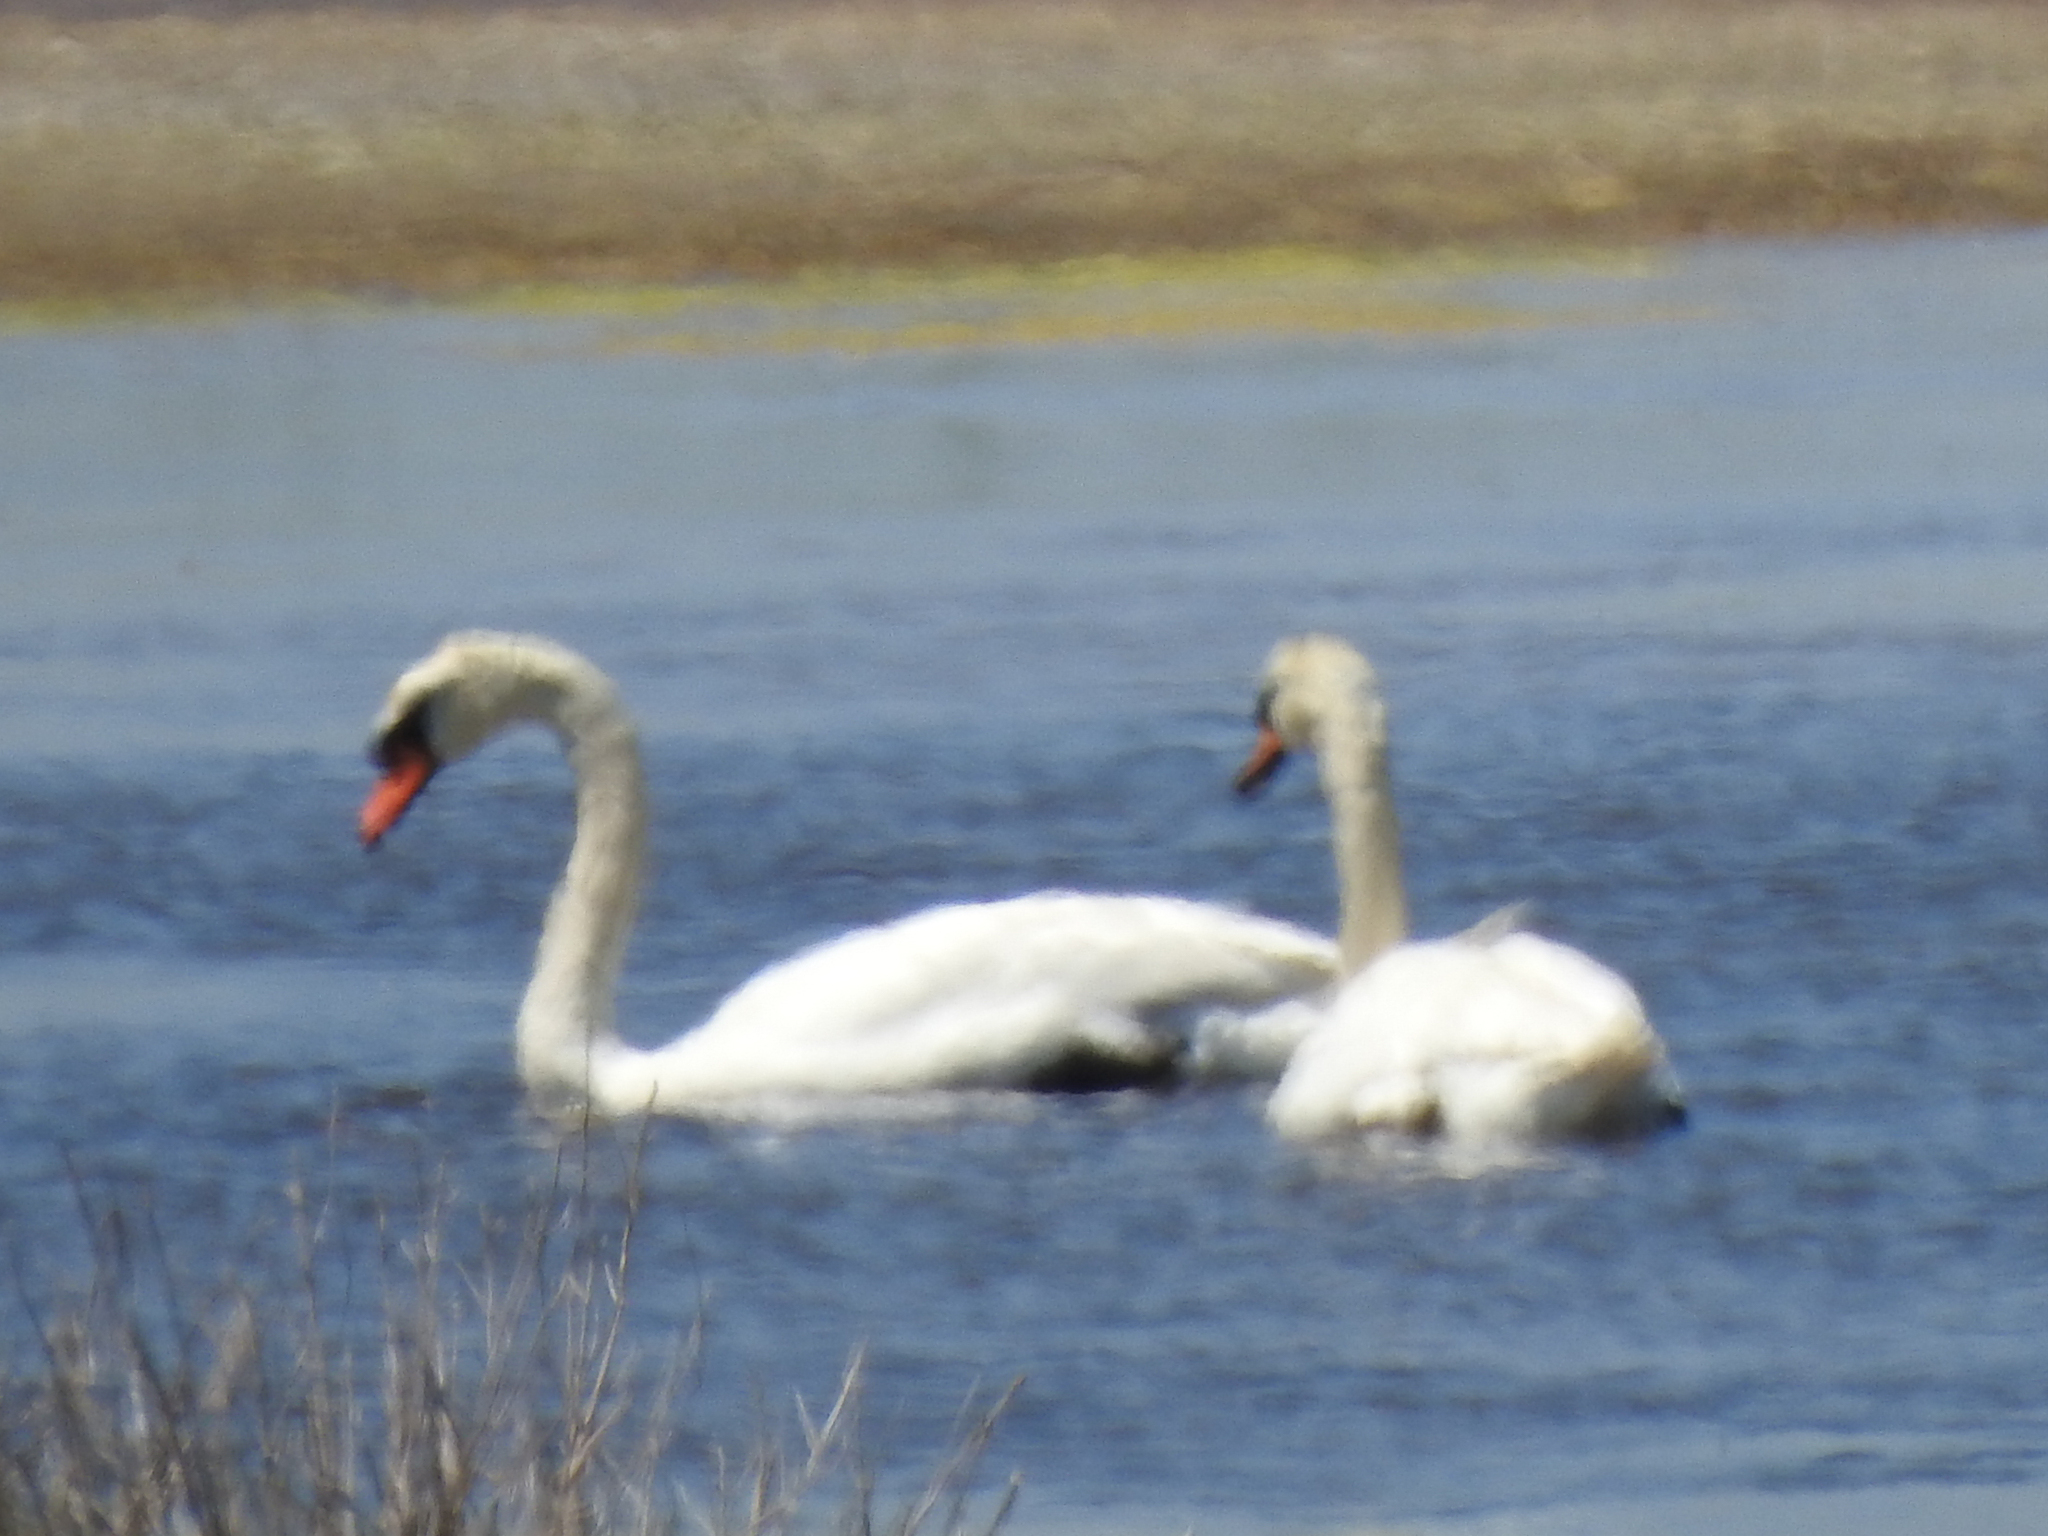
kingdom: Animalia
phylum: Chordata
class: Aves
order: Anseriformes
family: Anatidae
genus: Cygnus
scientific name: Cygnus olor
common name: Mute swan
